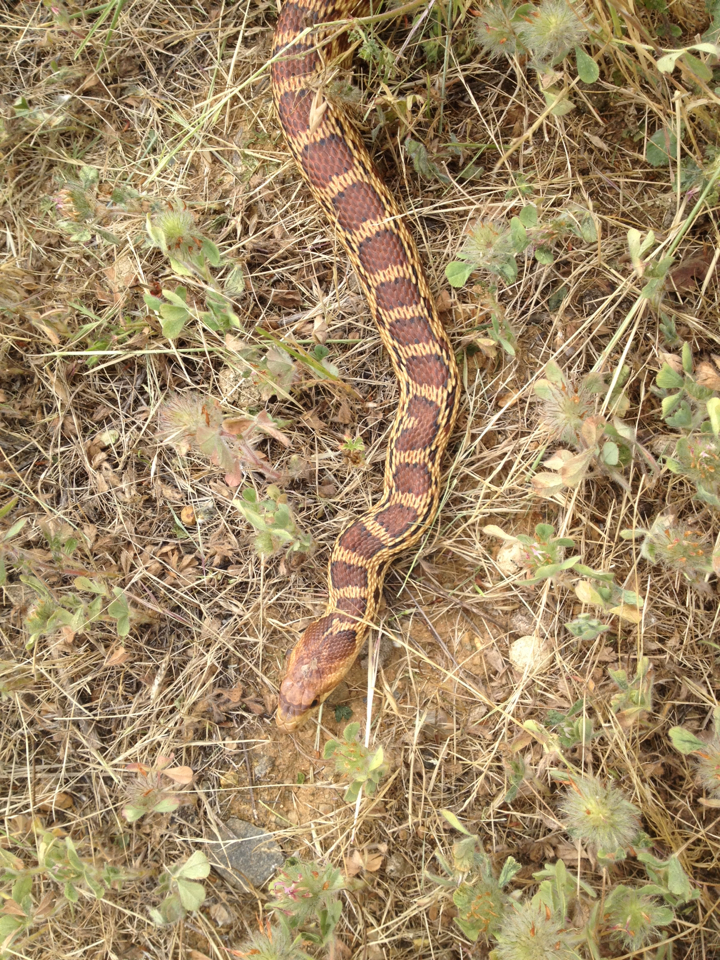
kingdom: Animalia
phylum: Chordata
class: Squamata
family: Colubridae
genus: Pituophis
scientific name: Pituophis catenifer
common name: Gopher snake
